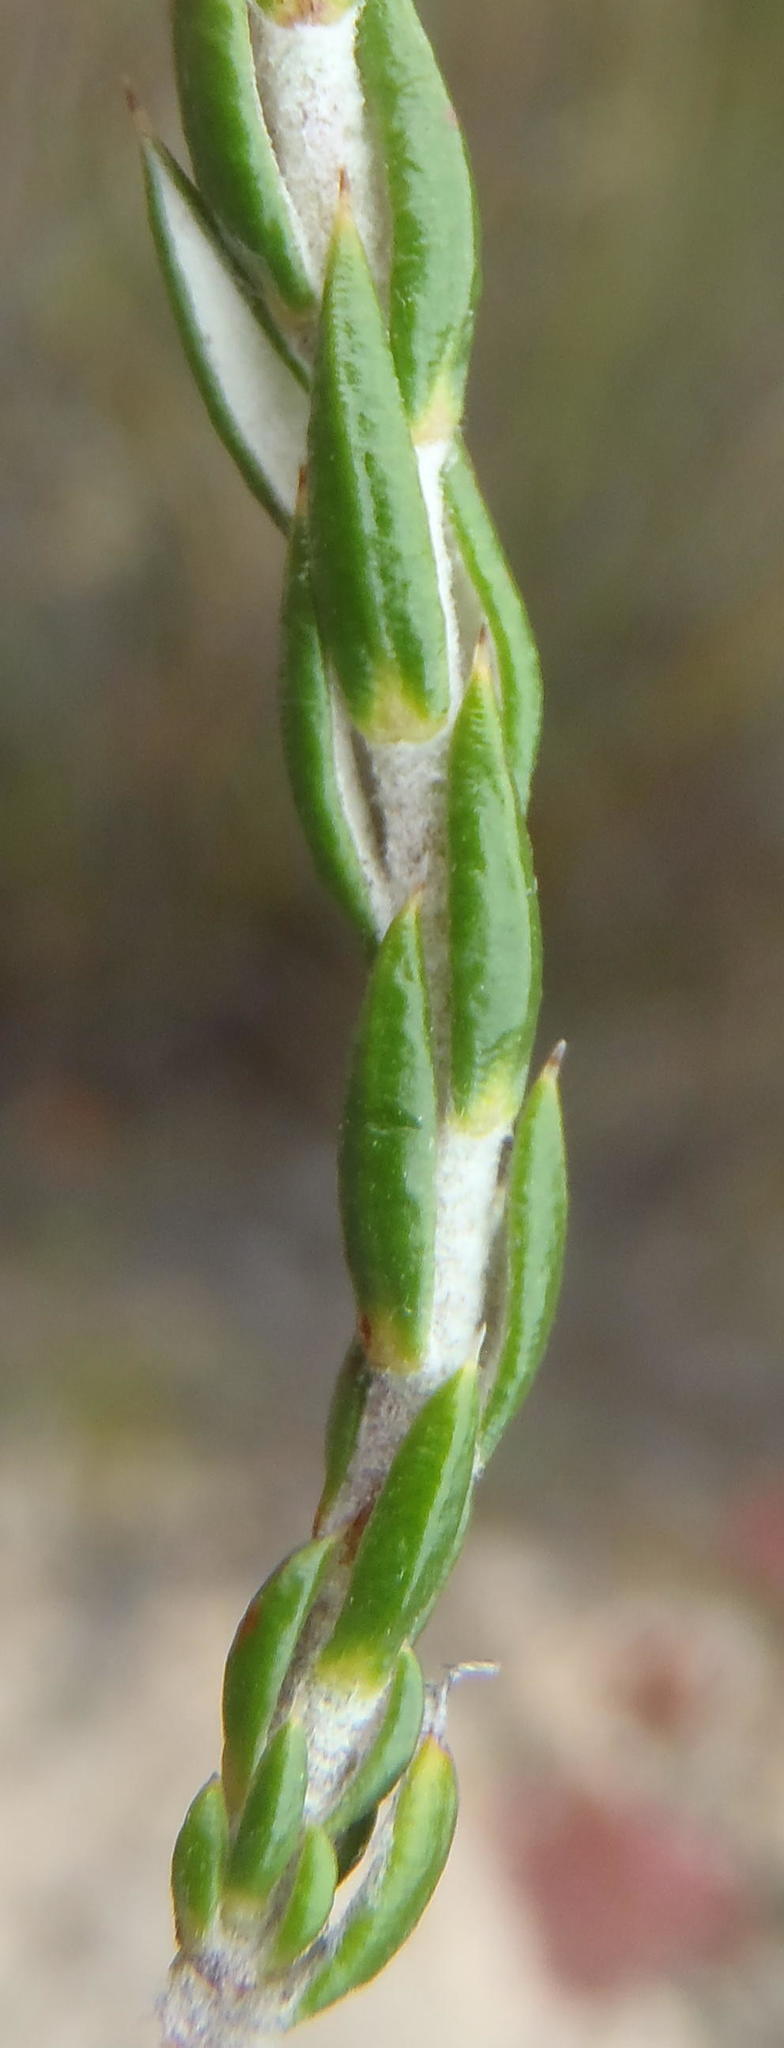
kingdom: Plantae
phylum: Tracheophyta
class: Magnoliopsida
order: Asterales
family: Asteraceae
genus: Metalasia
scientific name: Metalasia pungens
